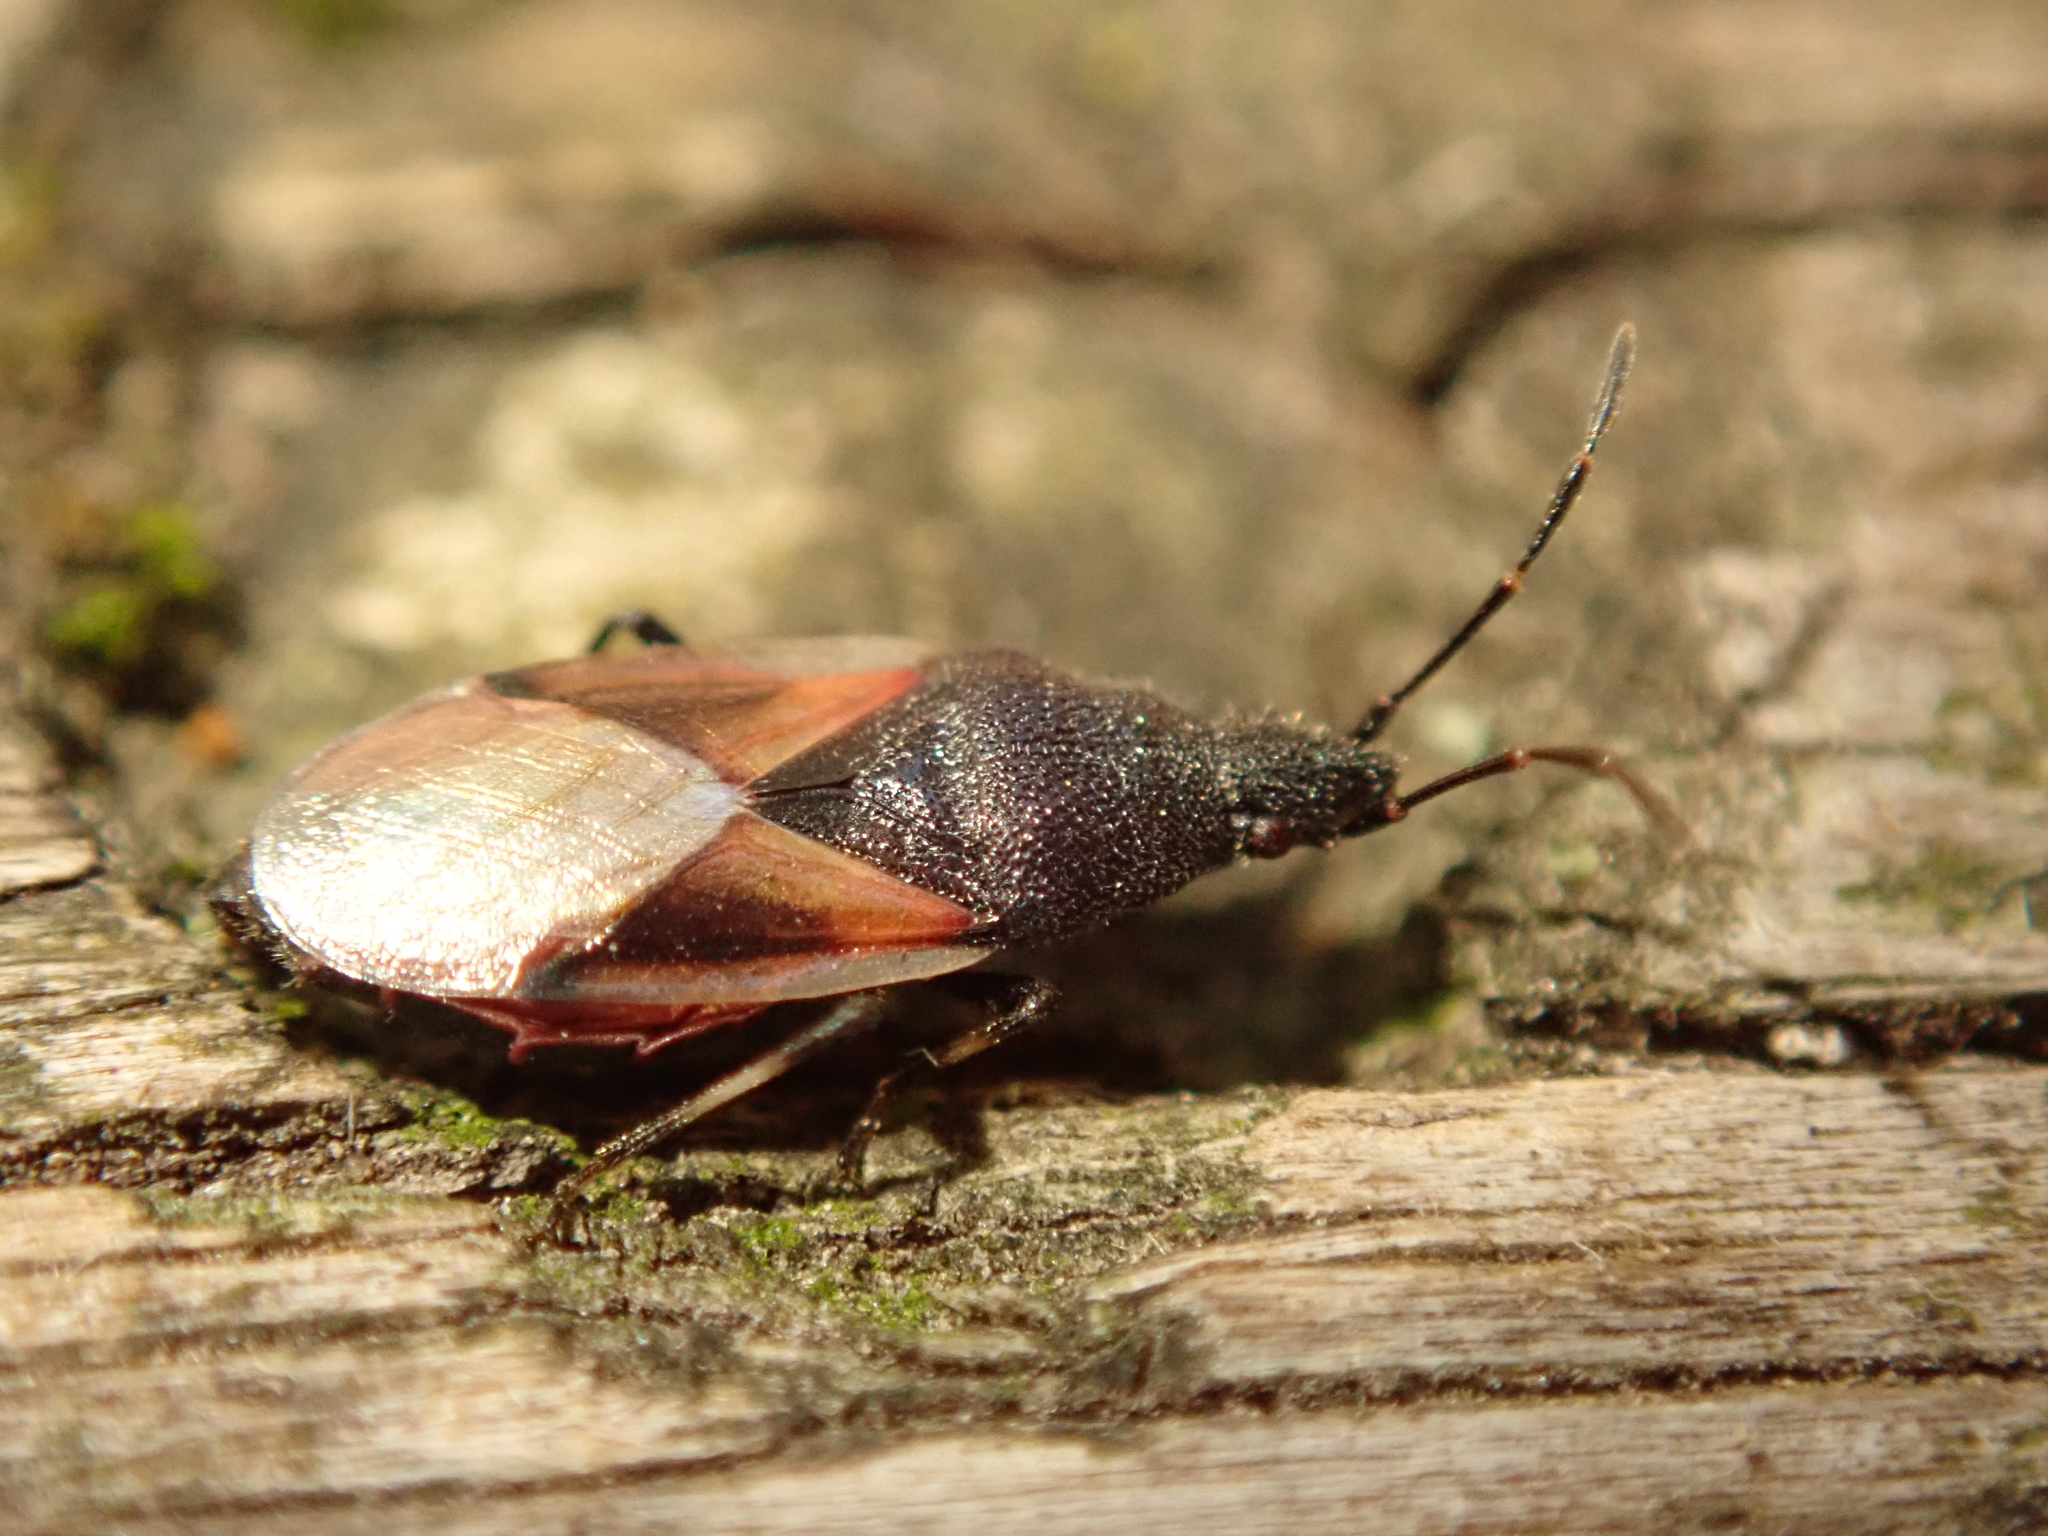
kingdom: Animalia
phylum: Arthropoda
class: Insecta
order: Hemiptera
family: Oxycarenidae
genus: Oxycarenus
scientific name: Oxycarenus lavaterae
